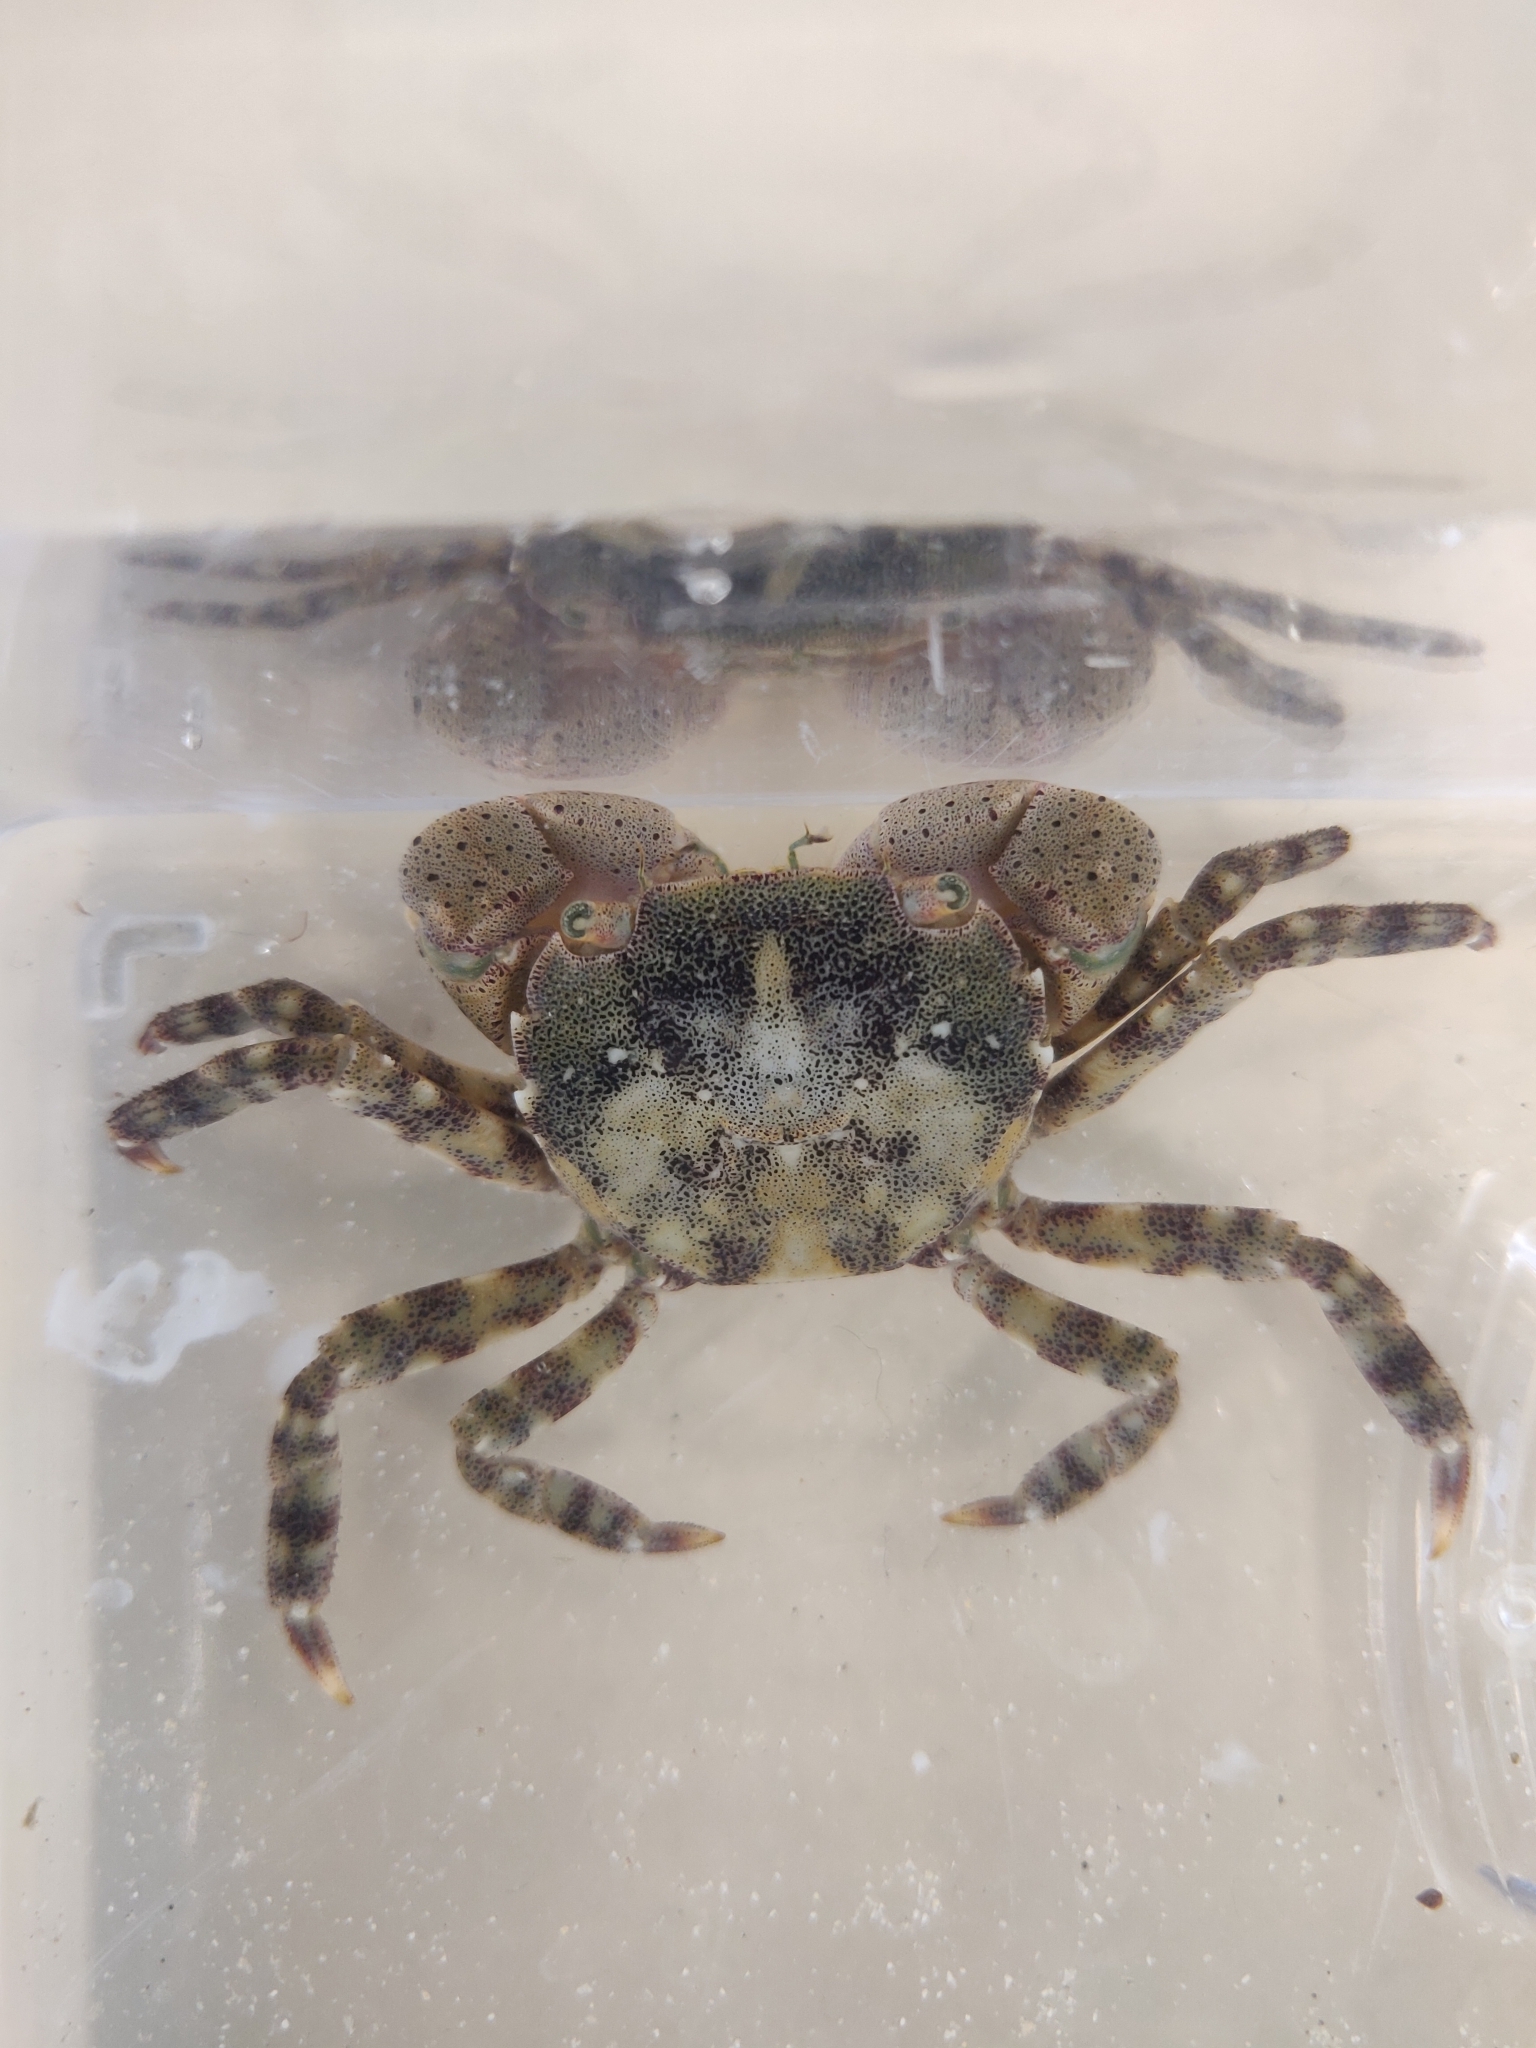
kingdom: Animalia
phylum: Arthropoda
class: Malacostraca
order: Decapoda
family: Varunidae
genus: Hemigrapsus
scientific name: Hemigrapsus sanguineus
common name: Asian shore crab
